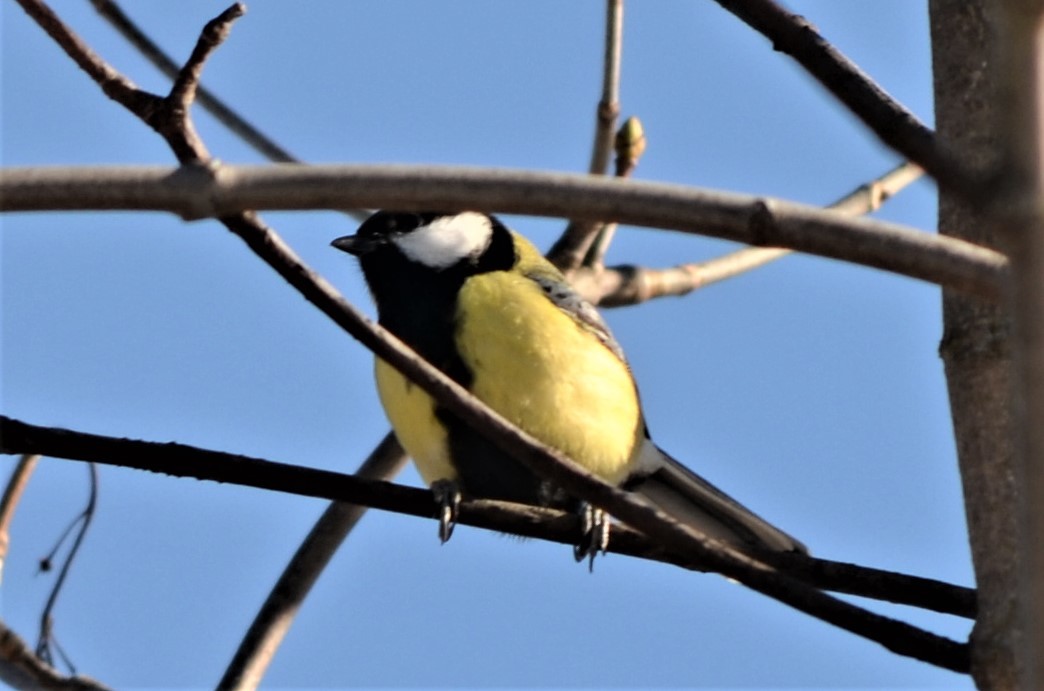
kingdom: Animalia
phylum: Chordata
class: Aves
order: Passeriformes
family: Paridae
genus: Parus
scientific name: Parus major
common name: Great tit
